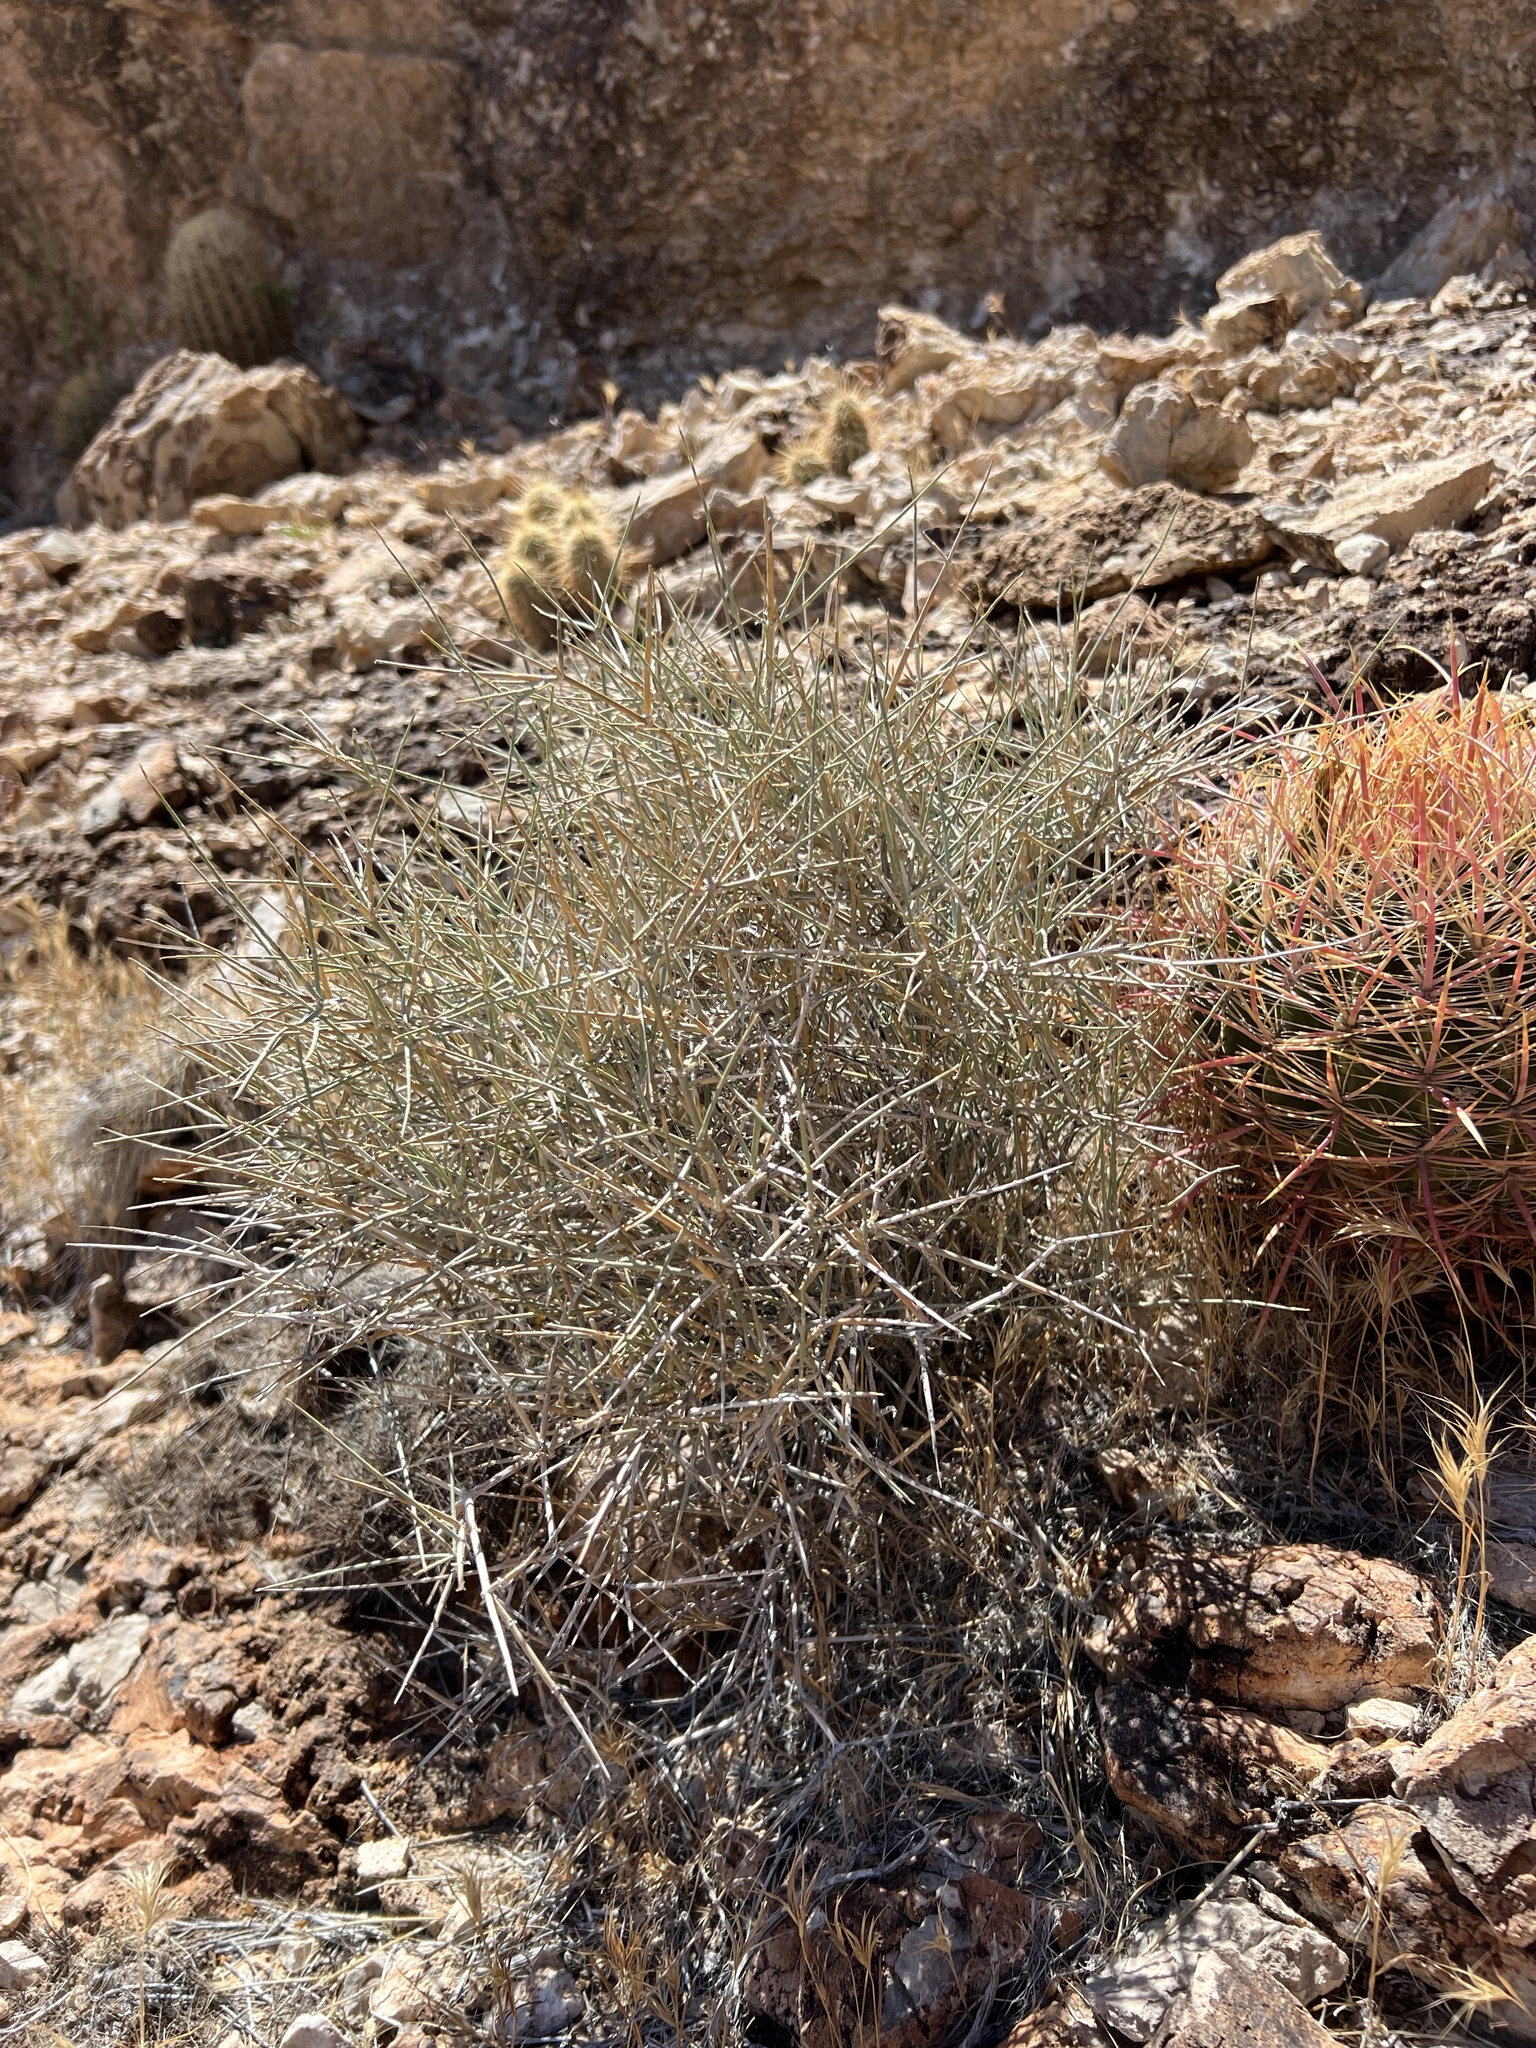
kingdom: Plantae
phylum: Tracheophyta
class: Gnetopsida
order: Ephedrales
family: Ephedraceae
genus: Ephedra
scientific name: Ephedra nevadensis
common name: Gray ephedra
